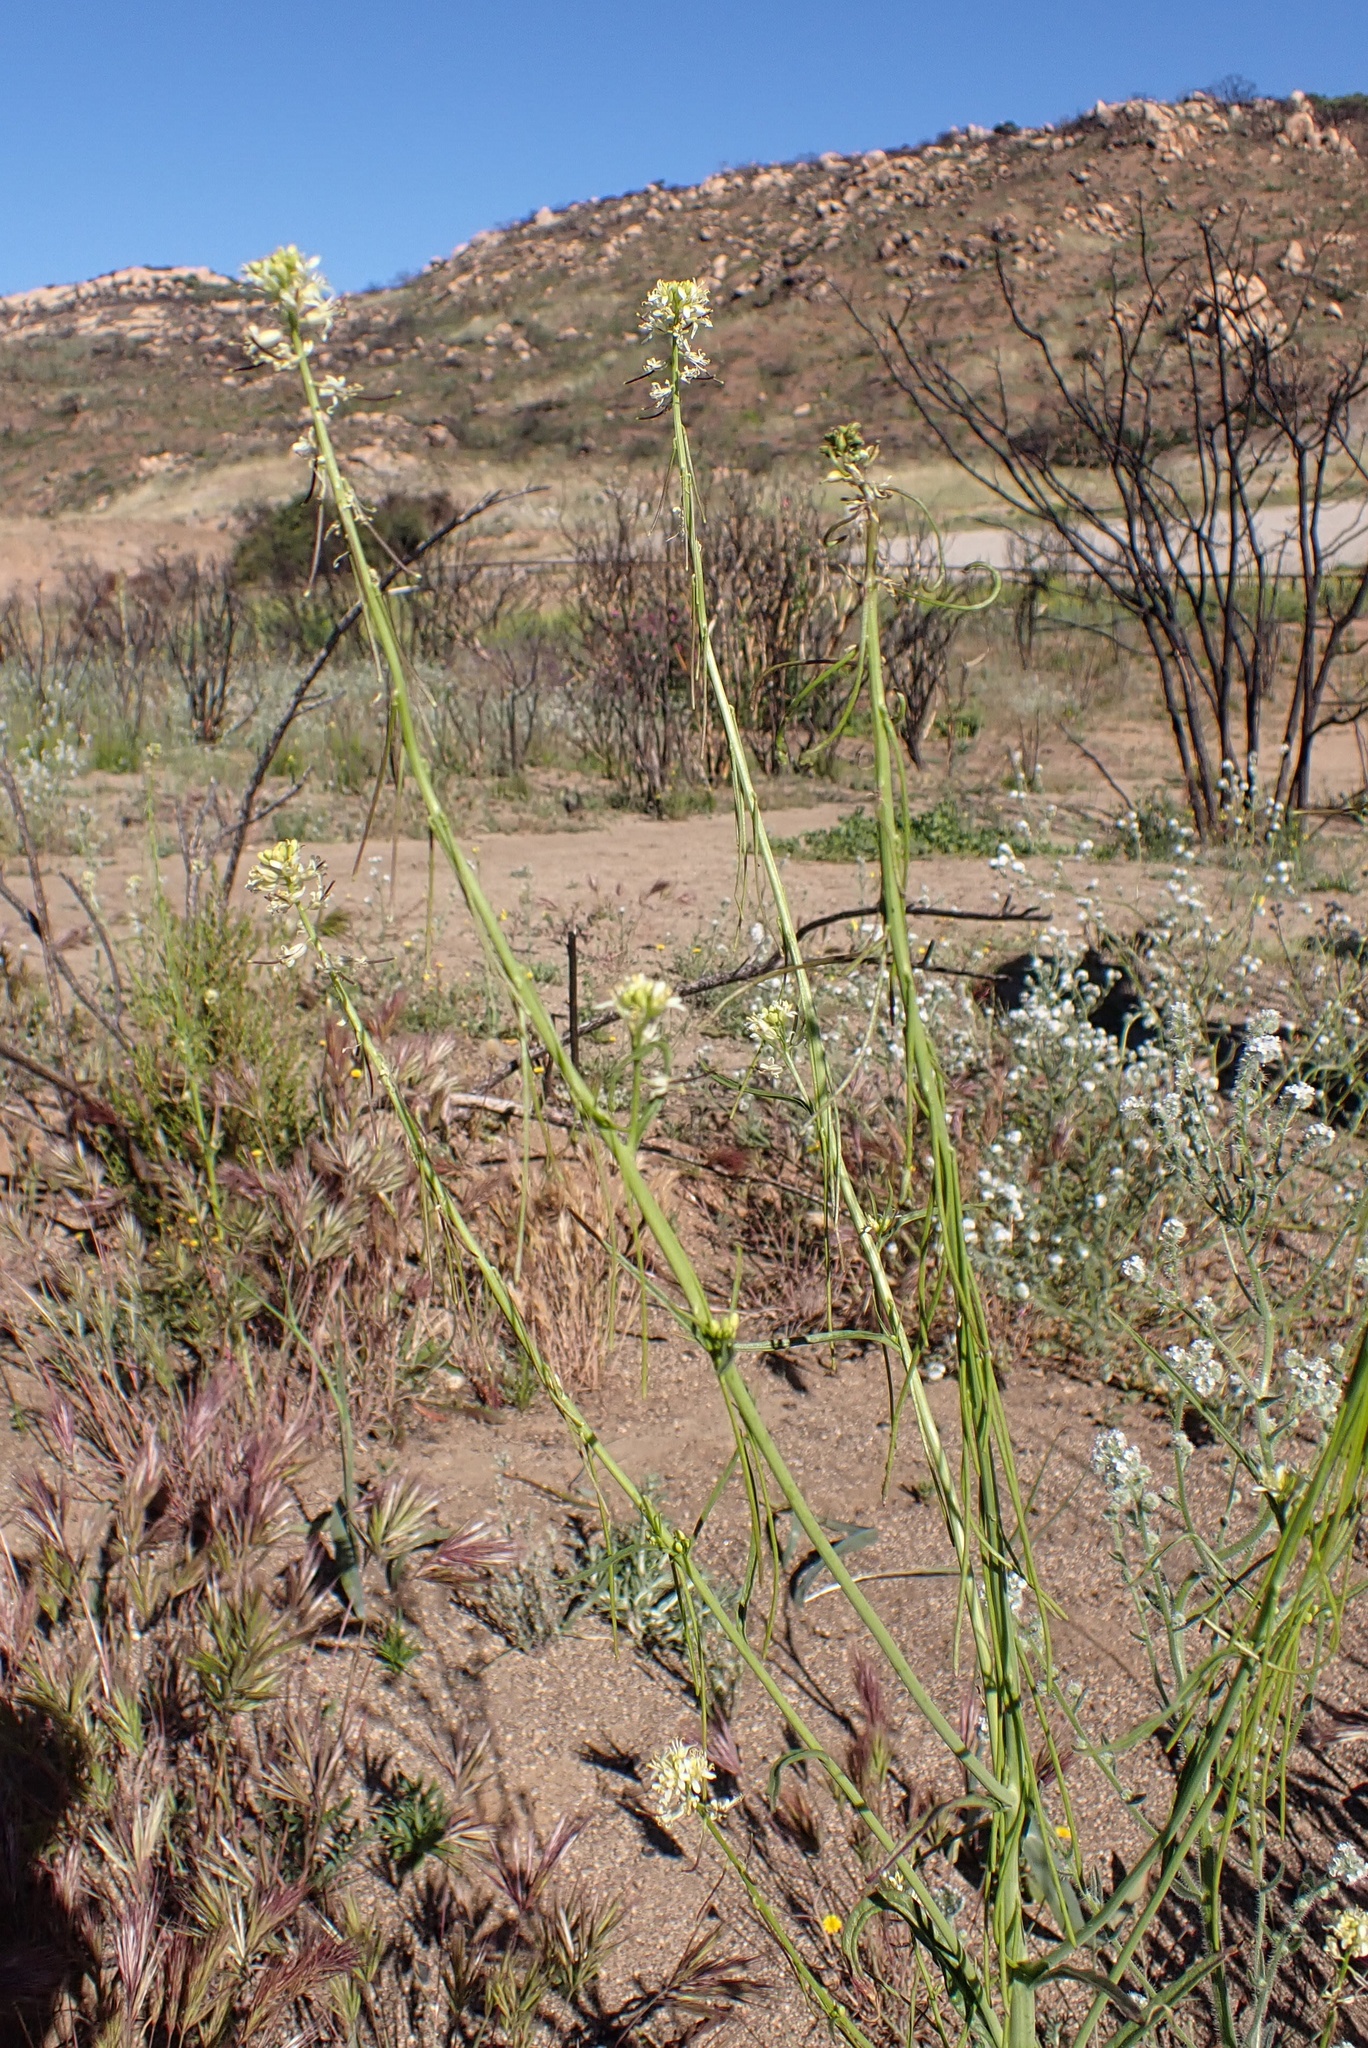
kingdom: Plantae
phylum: Tracheophyta
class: Magnoliopsida
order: Brassicales
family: Brassicaceae
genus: Streptanthus
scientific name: Streptanthus lasiophyllus
